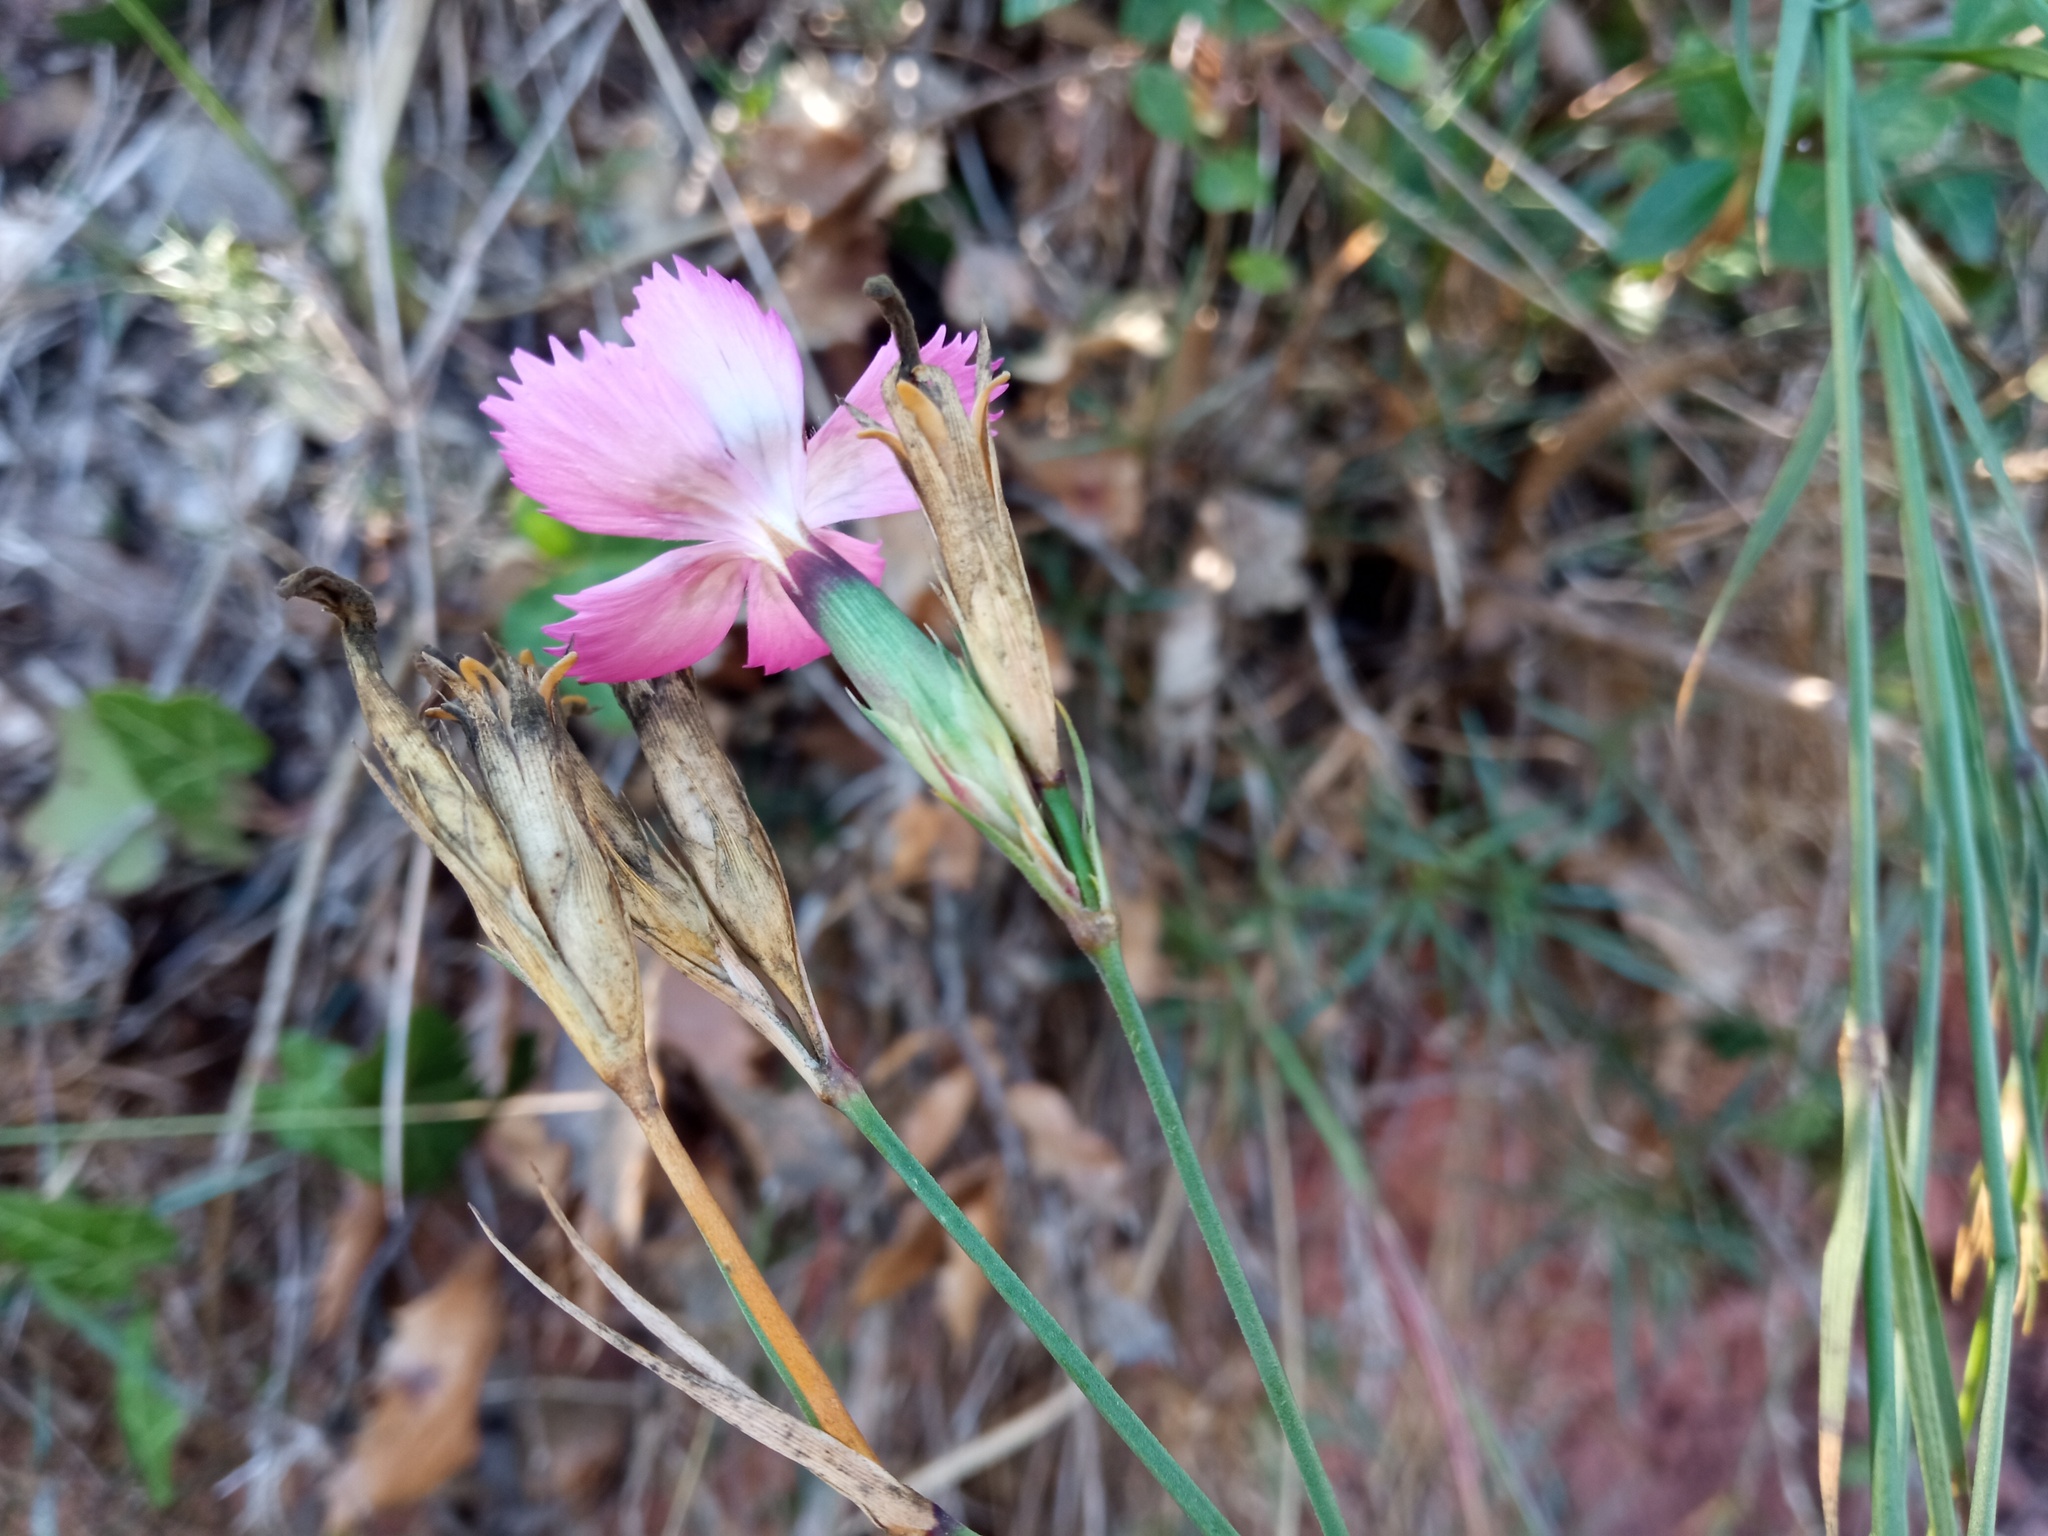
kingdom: Plantae
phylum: Tracheophyta
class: Magnoliopsida
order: Caryophyllales
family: Caryophyllaceae
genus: Dianthus
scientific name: Dianthus seguieri
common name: Ragged pink
